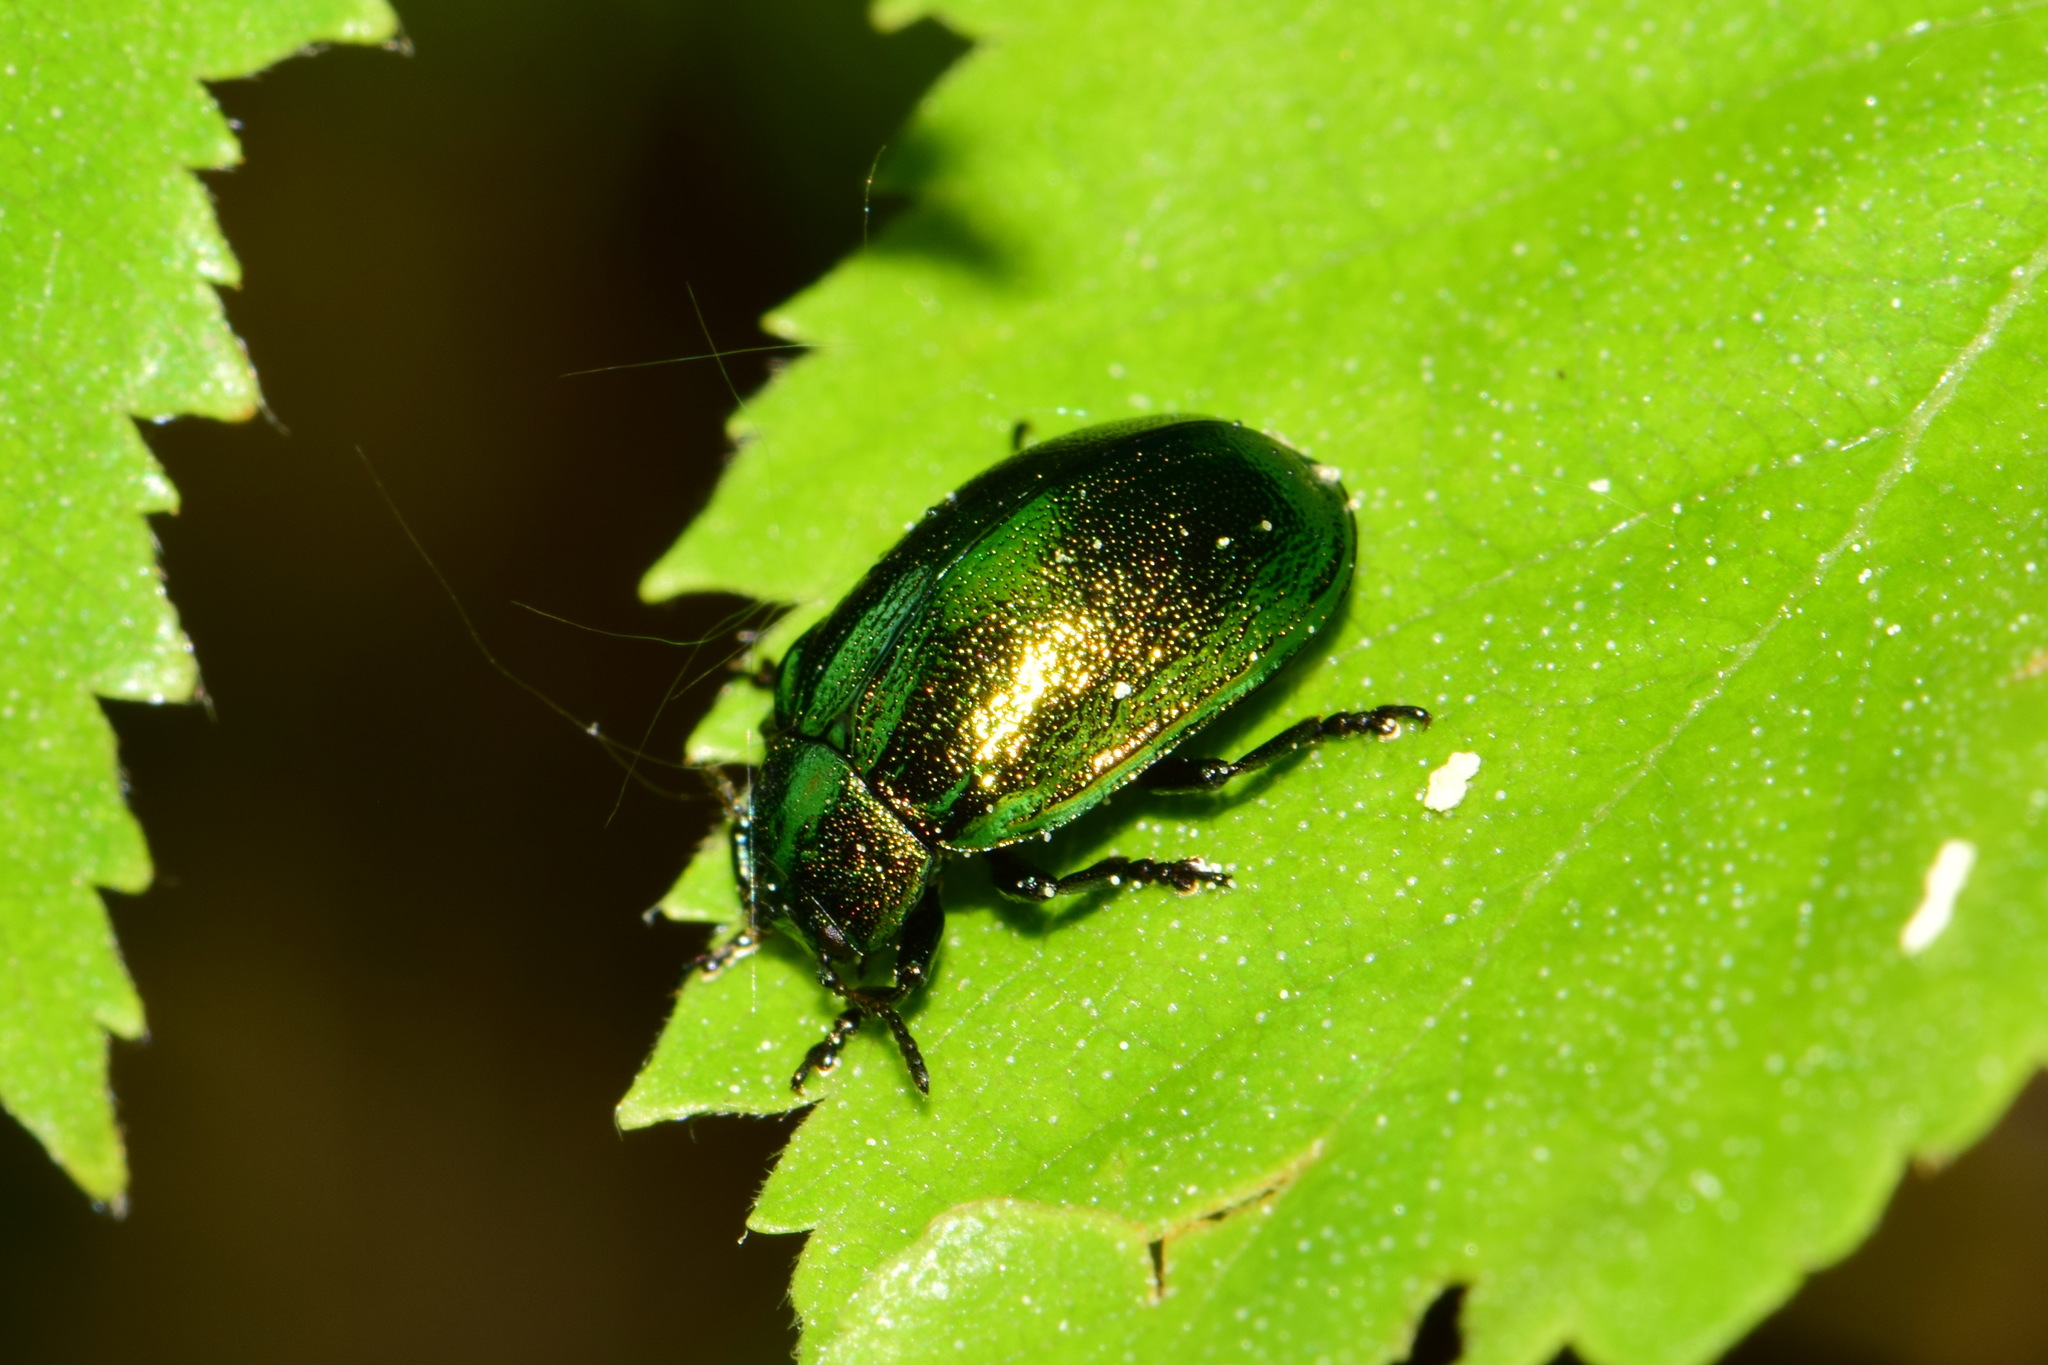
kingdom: Animalia
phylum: Arthropoda
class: Insecta
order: Coleoptera
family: Chrysomelidae
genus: Plagiosterna
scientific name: Plagiosterna aenea
